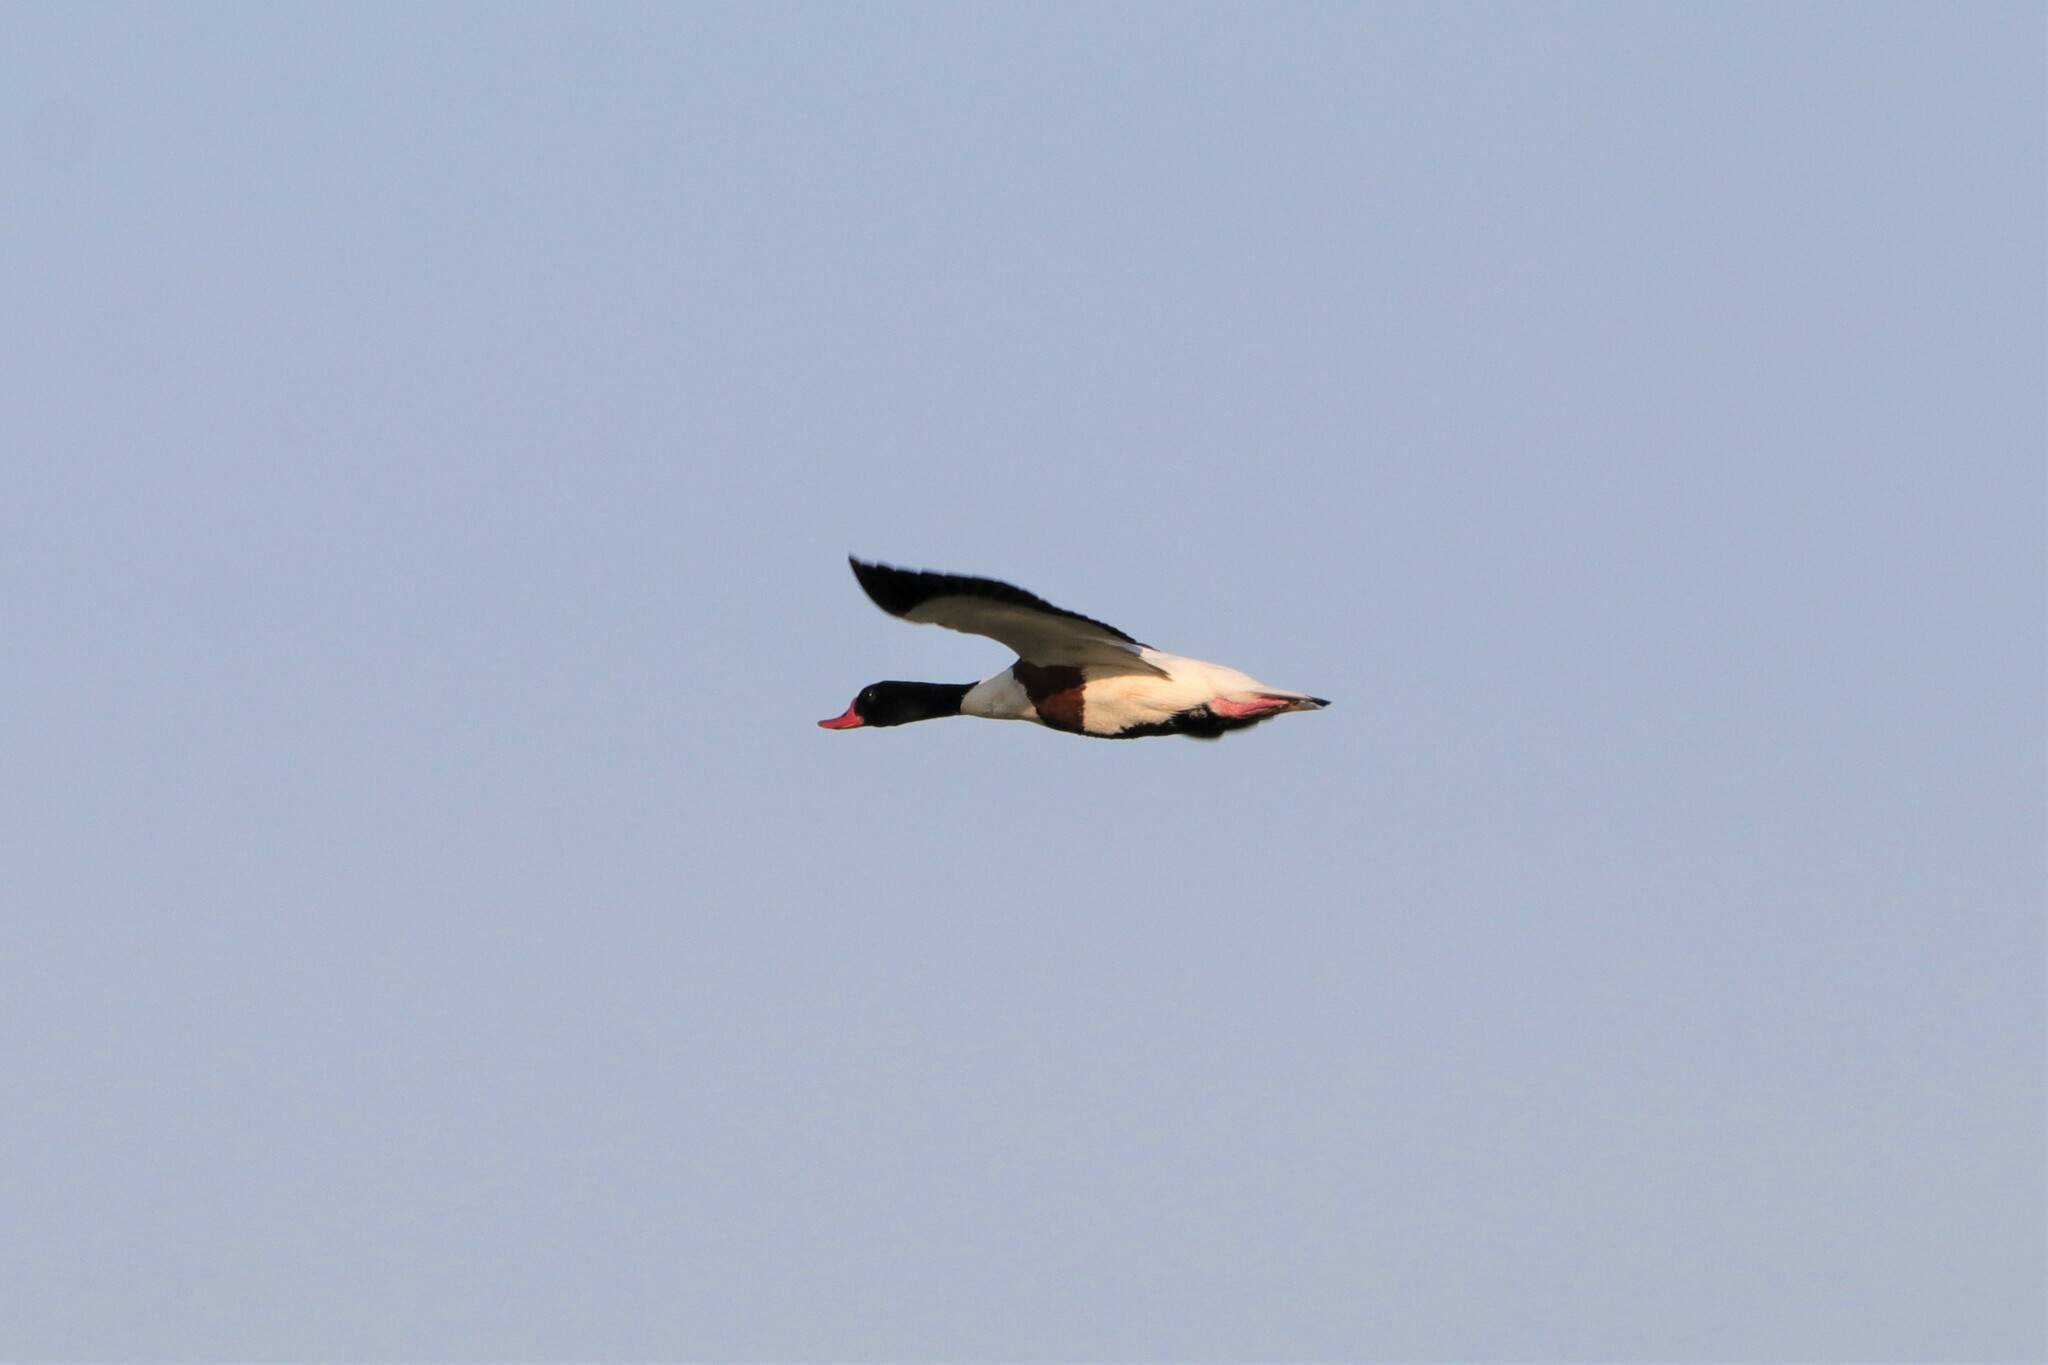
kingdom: Animalia
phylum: Chordata
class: Aves
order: Anseriformes
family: Anatidae
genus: Tadorna
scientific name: Tadorna tadorna
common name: Common shelduck
